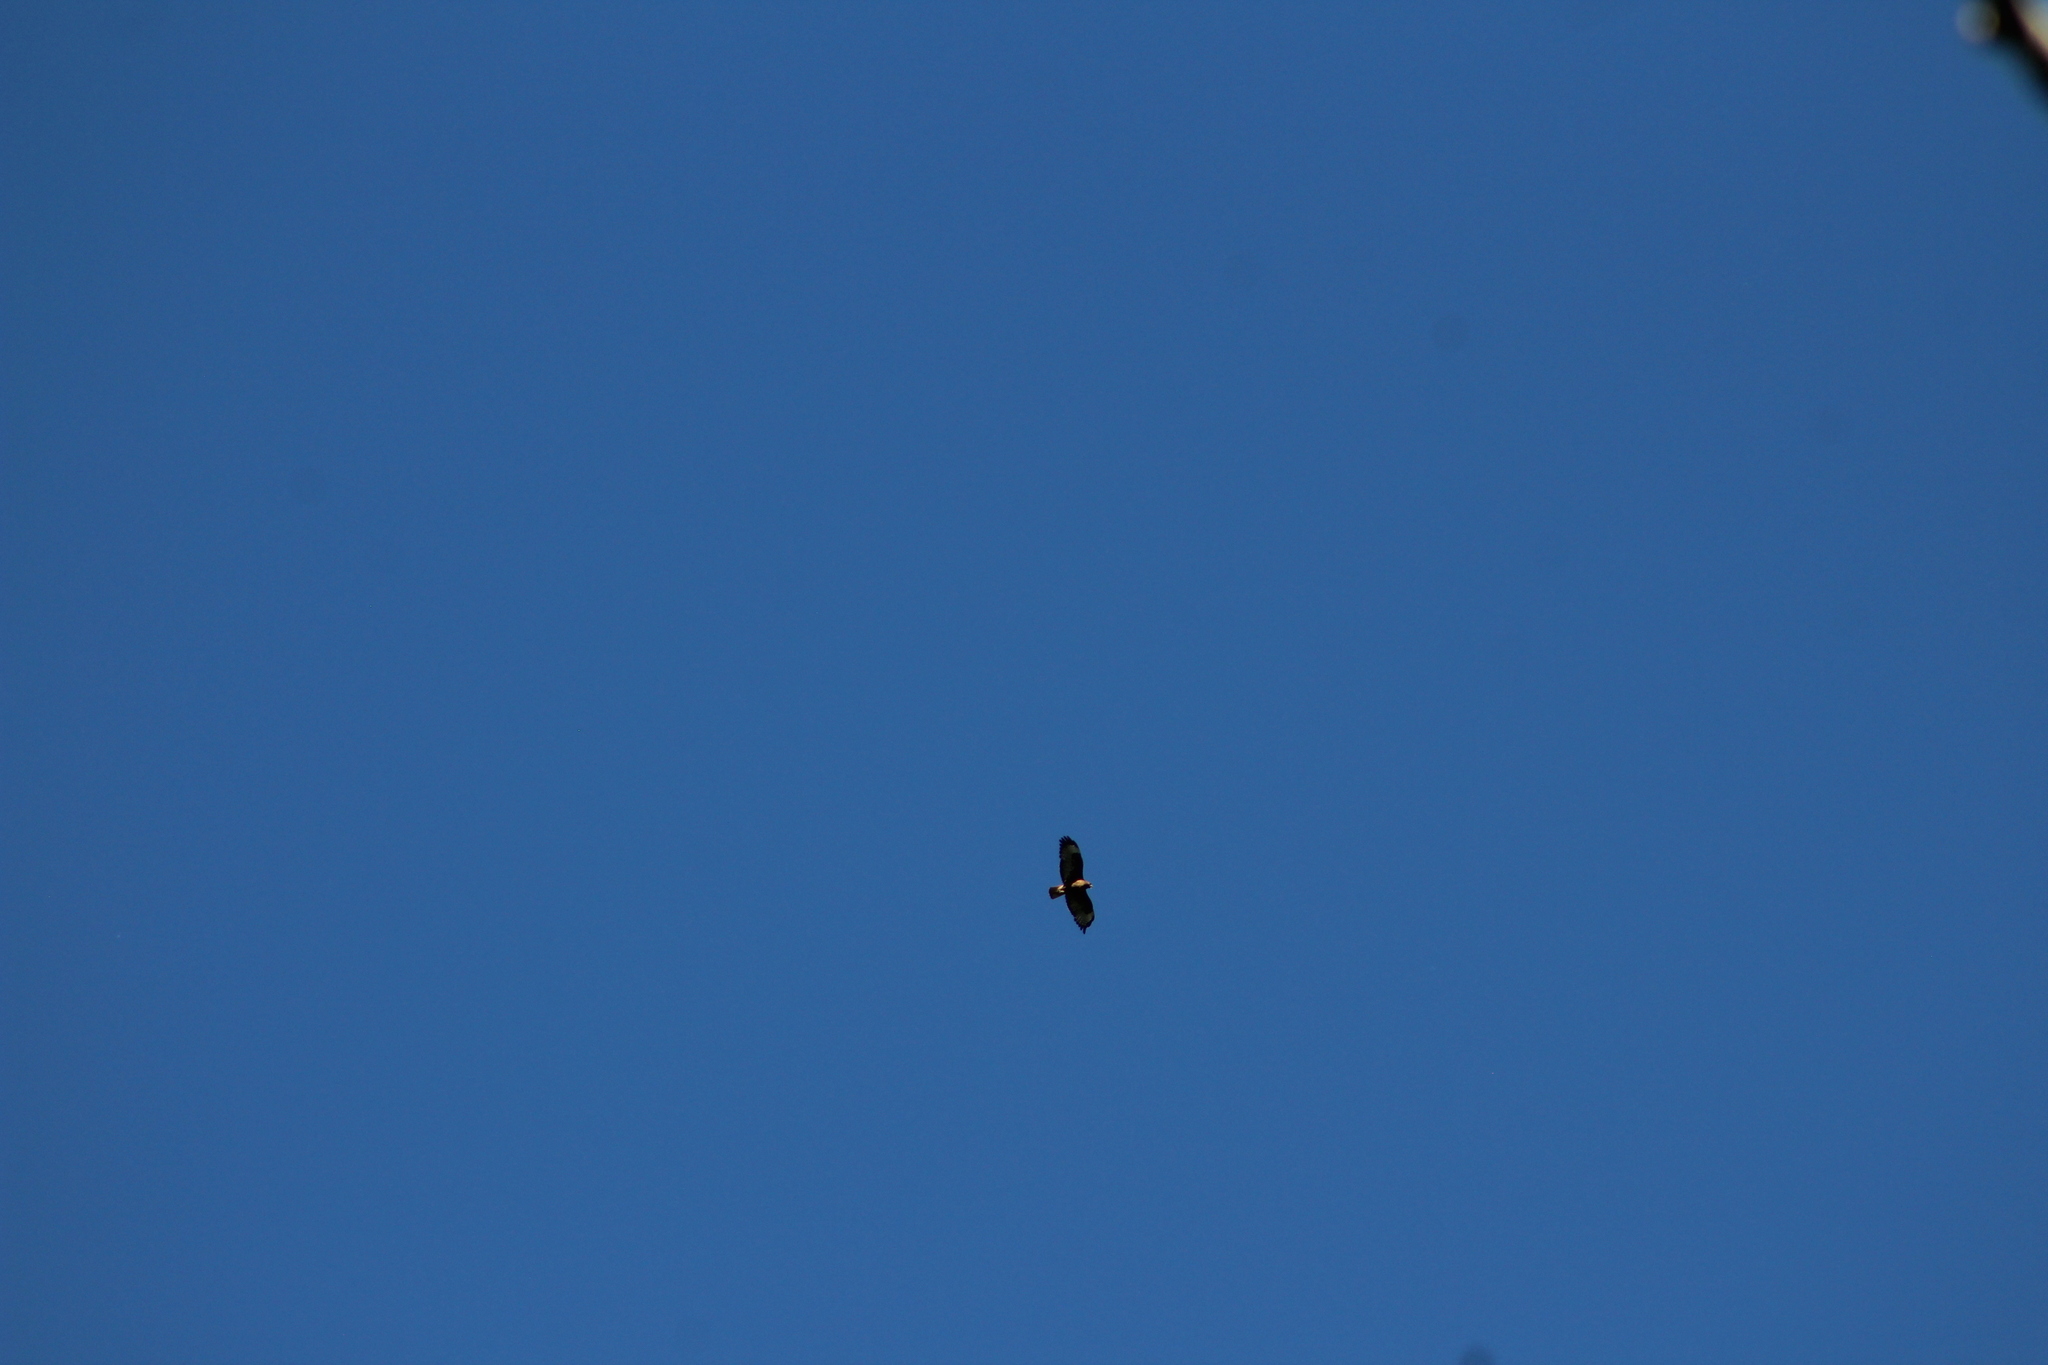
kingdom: Animalia
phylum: Chordata
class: Aves
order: Accipitriformes
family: Accipitridae
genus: Buteo
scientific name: Buteo jamaicensis
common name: Red-tailed hawk
